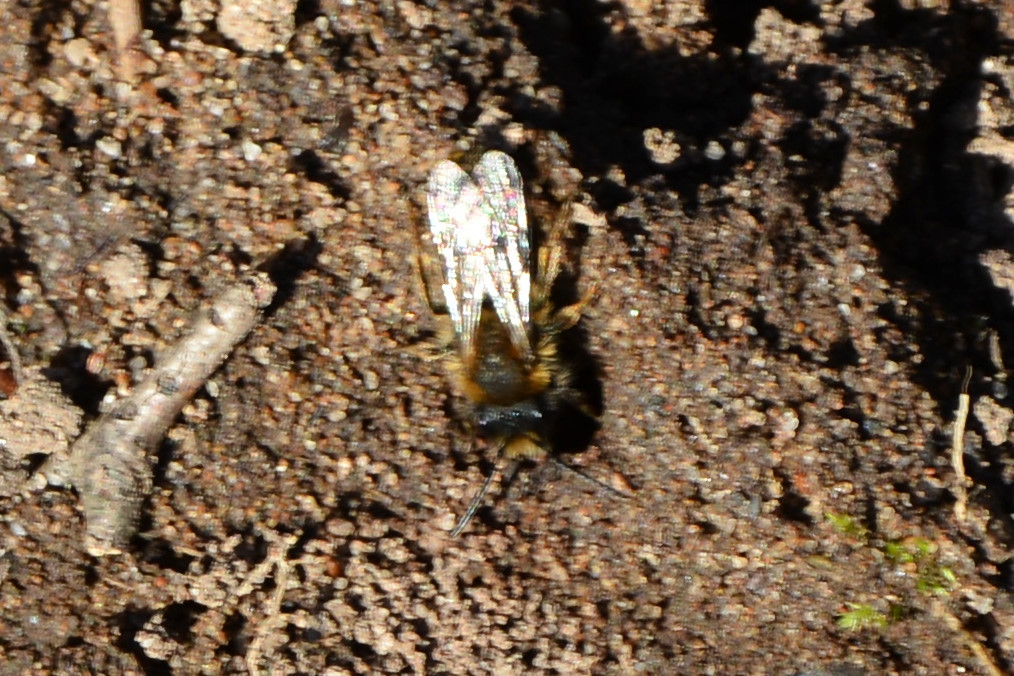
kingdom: Animalia
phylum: Arthropoda
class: Insecta
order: Hymenoptera
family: Andrenidae
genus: Andrena
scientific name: Andrena clarkella
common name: Clarke's mining bee
